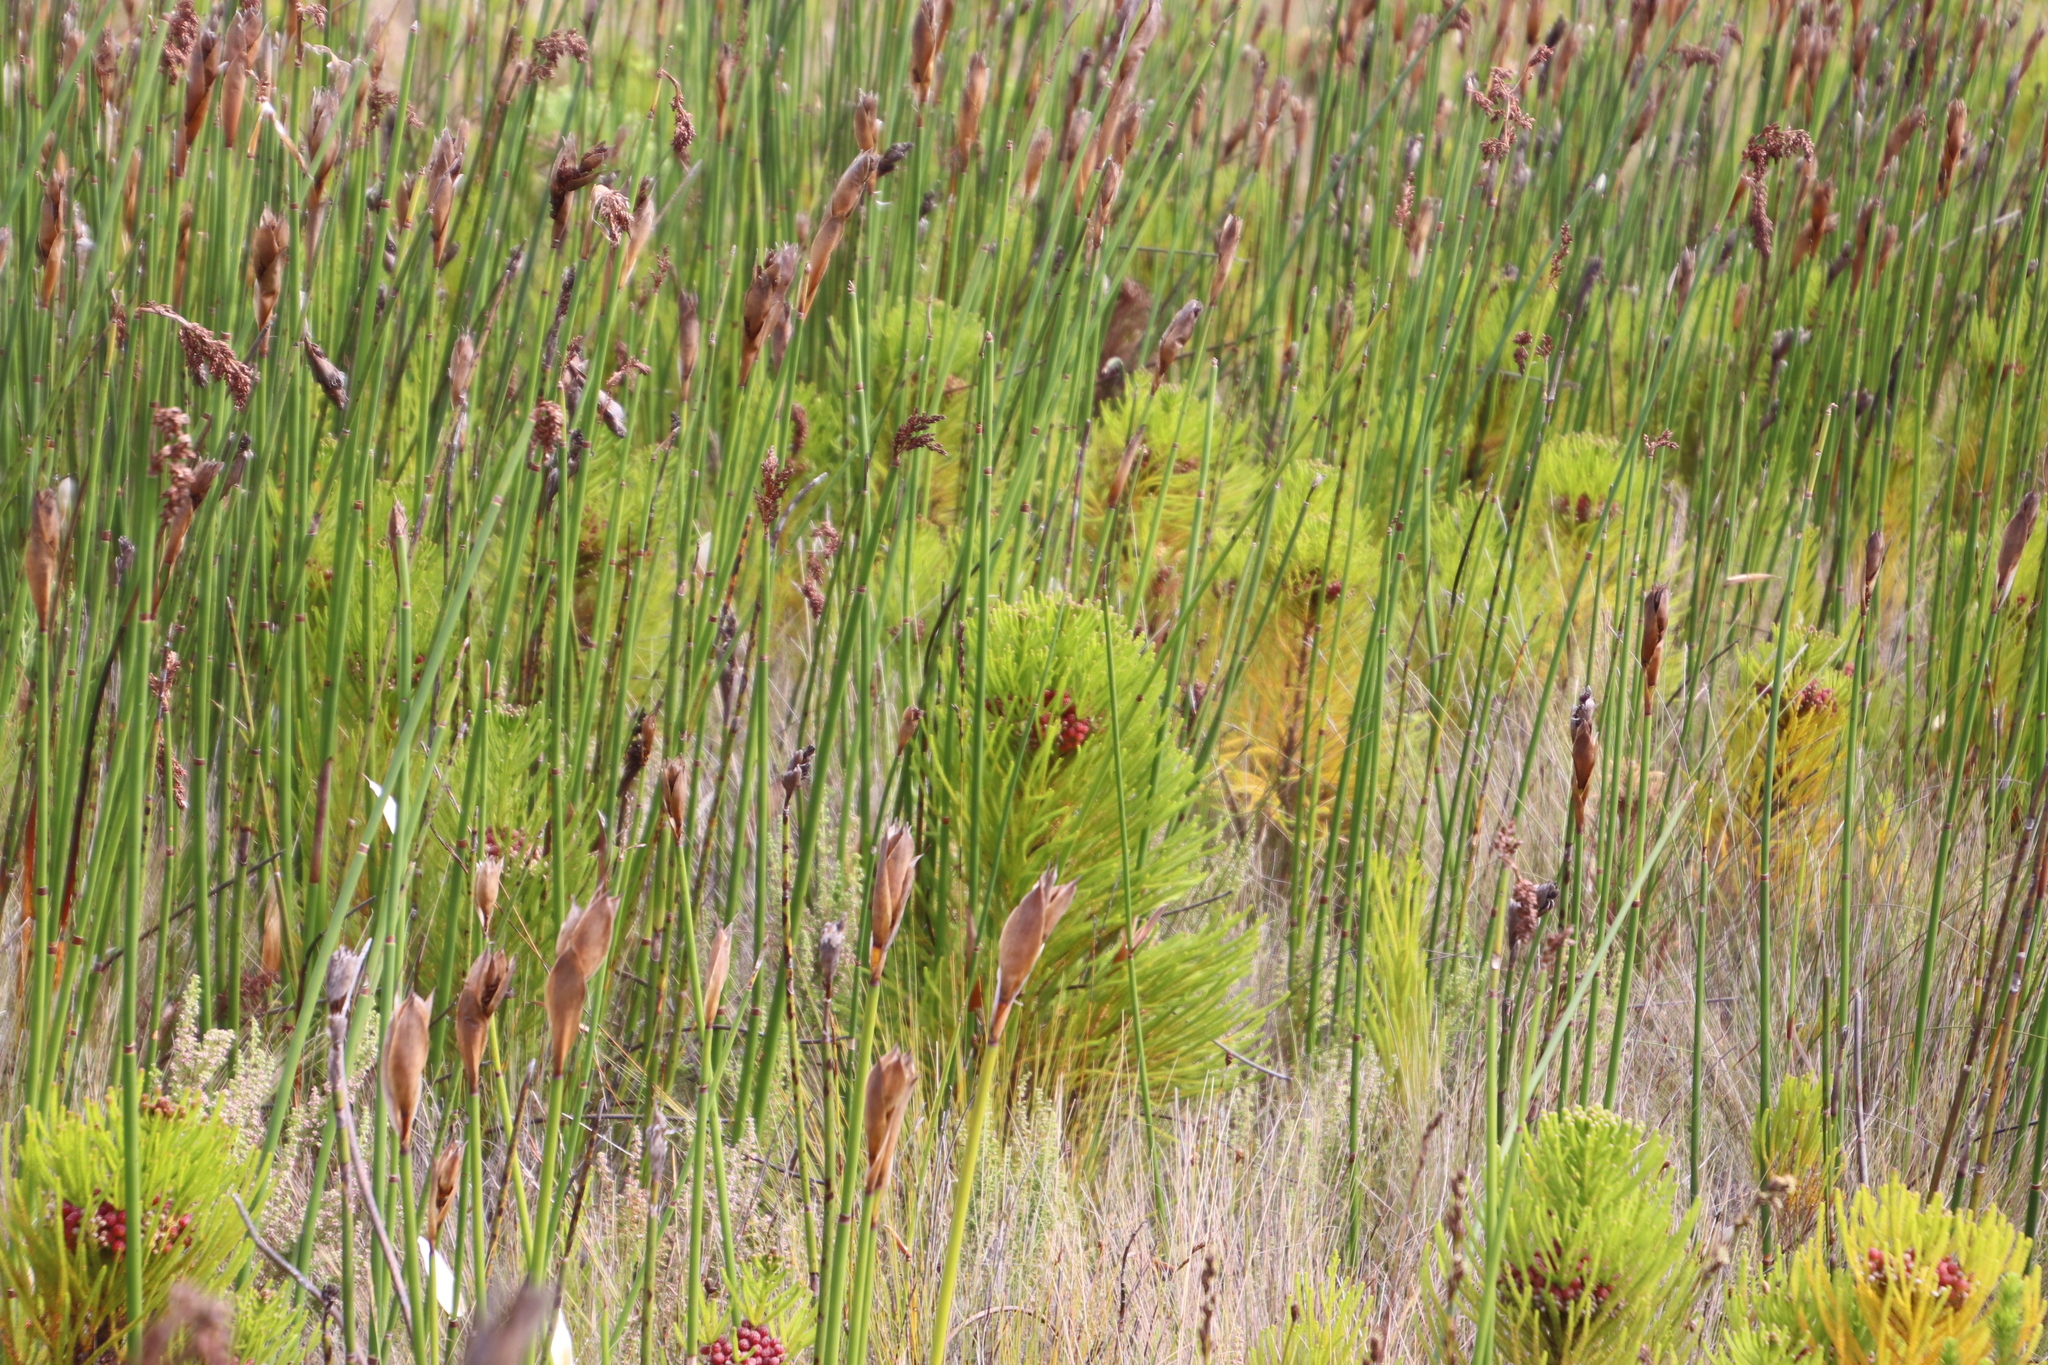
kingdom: Plantae
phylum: Tracheophyta
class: Magnoliopsida
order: Bruniales
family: Bruniaceae
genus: Berzelia
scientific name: Berzelia alopecurioides
